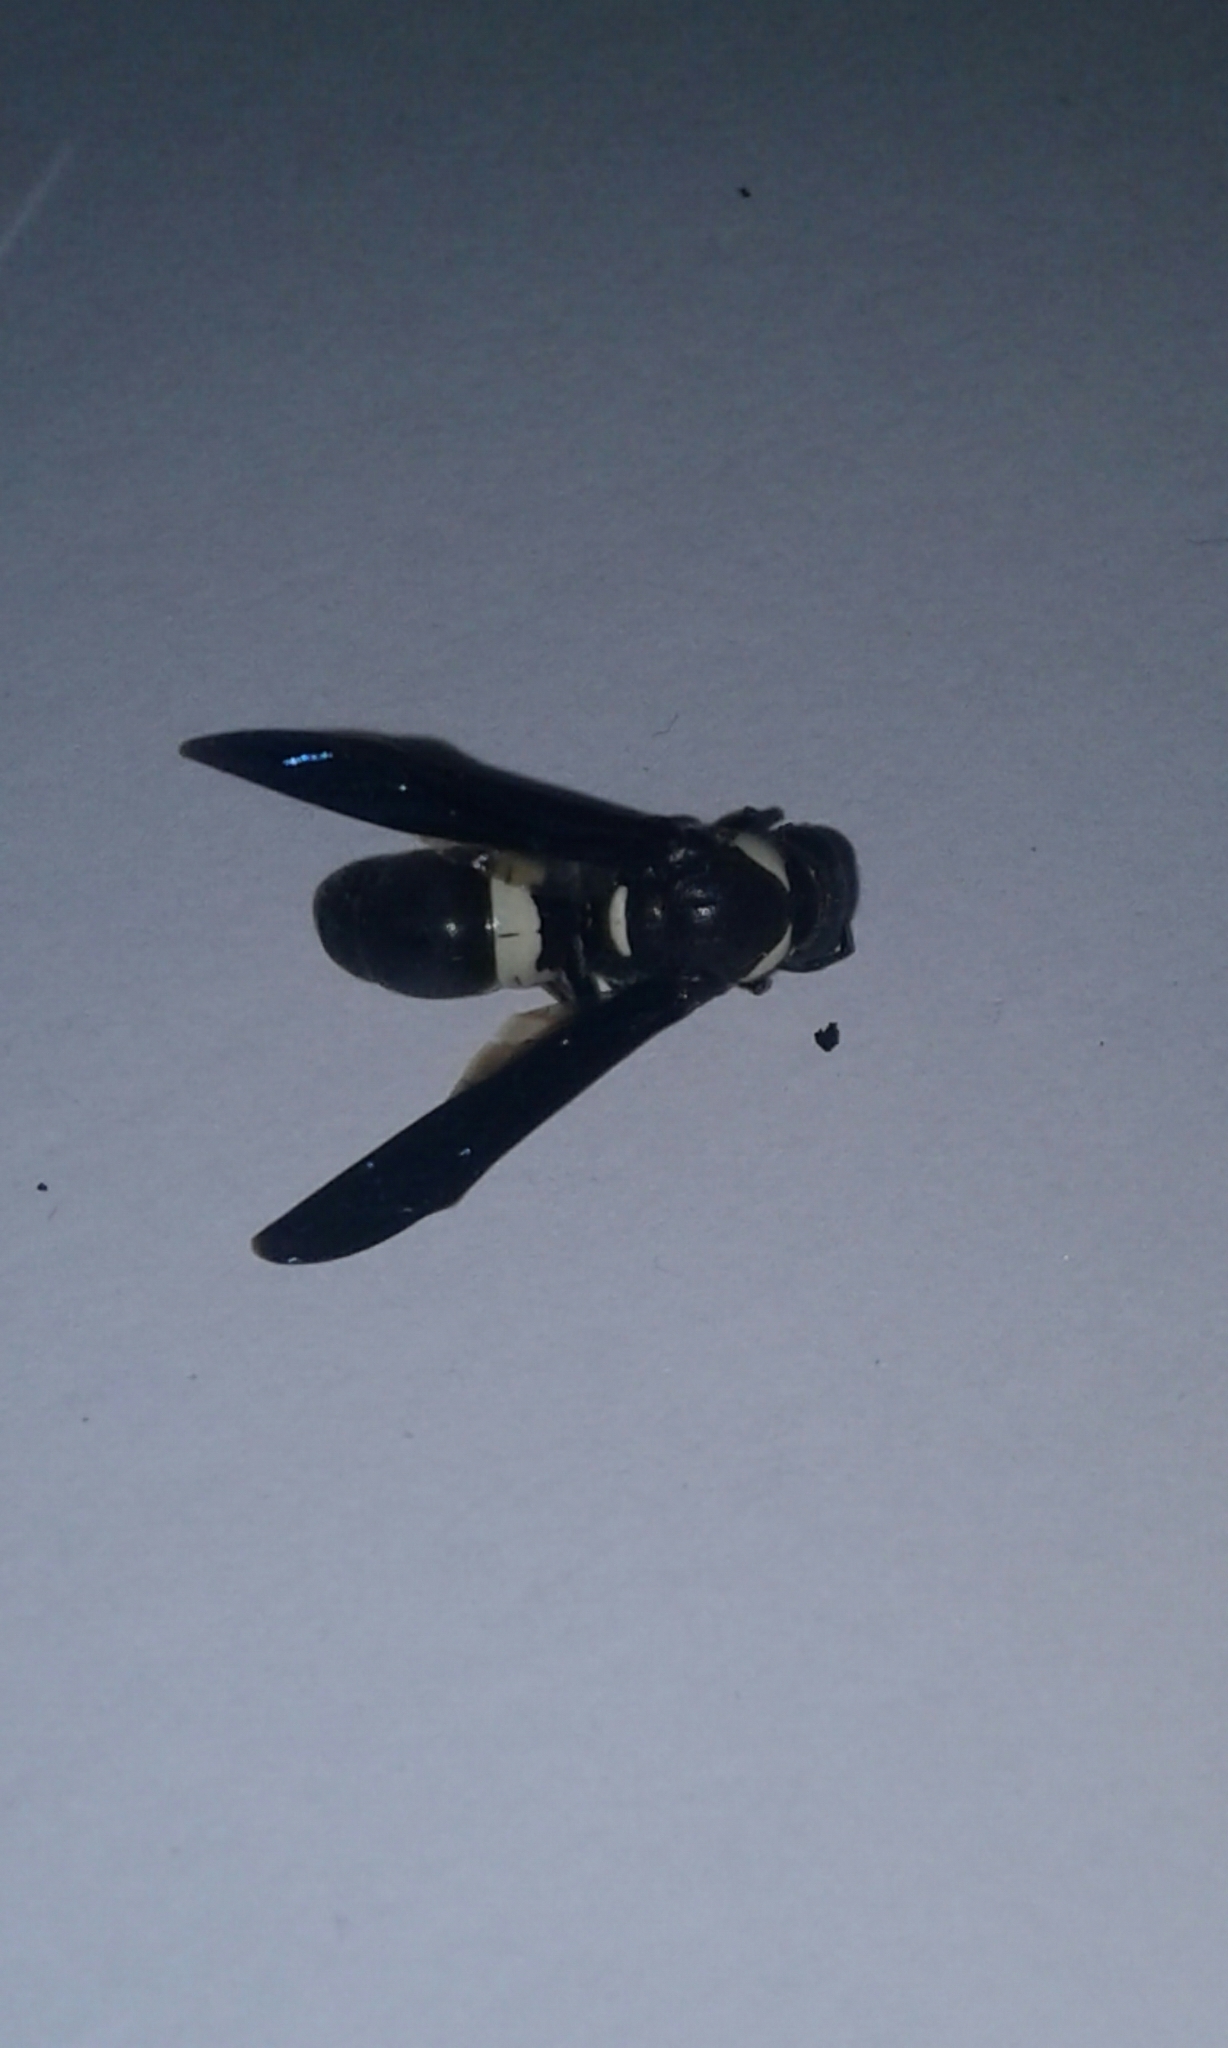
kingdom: Animalia
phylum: Arthropoda
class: Insecta
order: Hymenoptera
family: Eumenidae
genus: Monobia
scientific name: Monobia quadridens
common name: Four-toothed mason wasp
